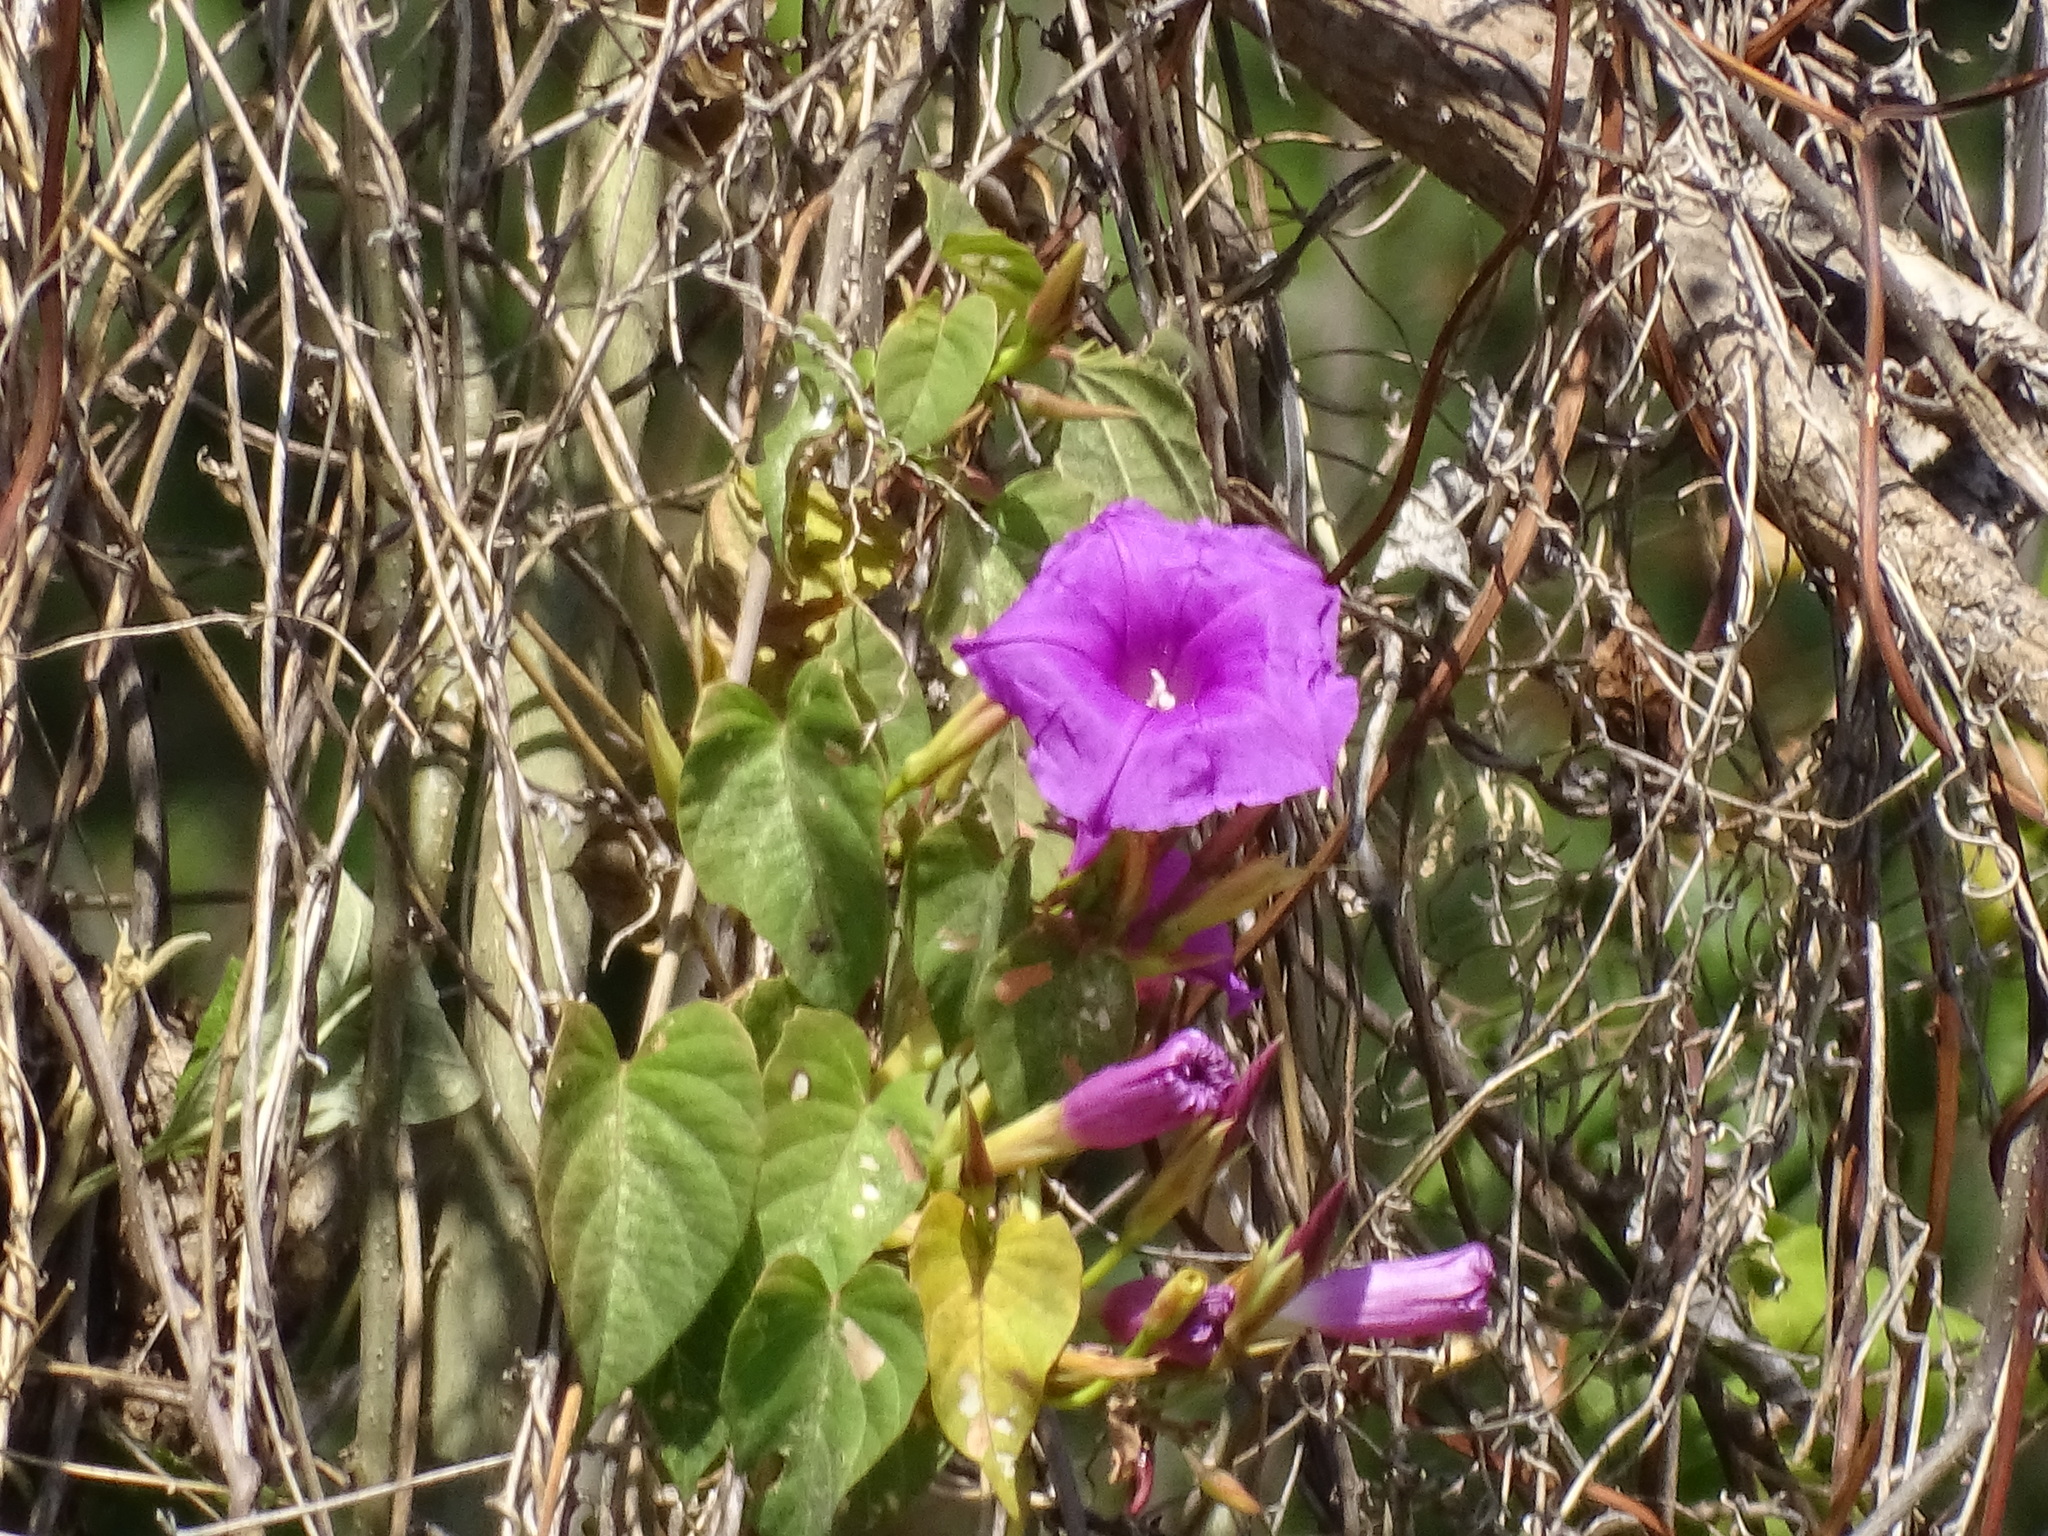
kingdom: Plantae
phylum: Tracheophyta
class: Magnoliopsida
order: Solanales
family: Convolvulaceae
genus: Ipomoea
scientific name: Ipomoea bernoulliana
